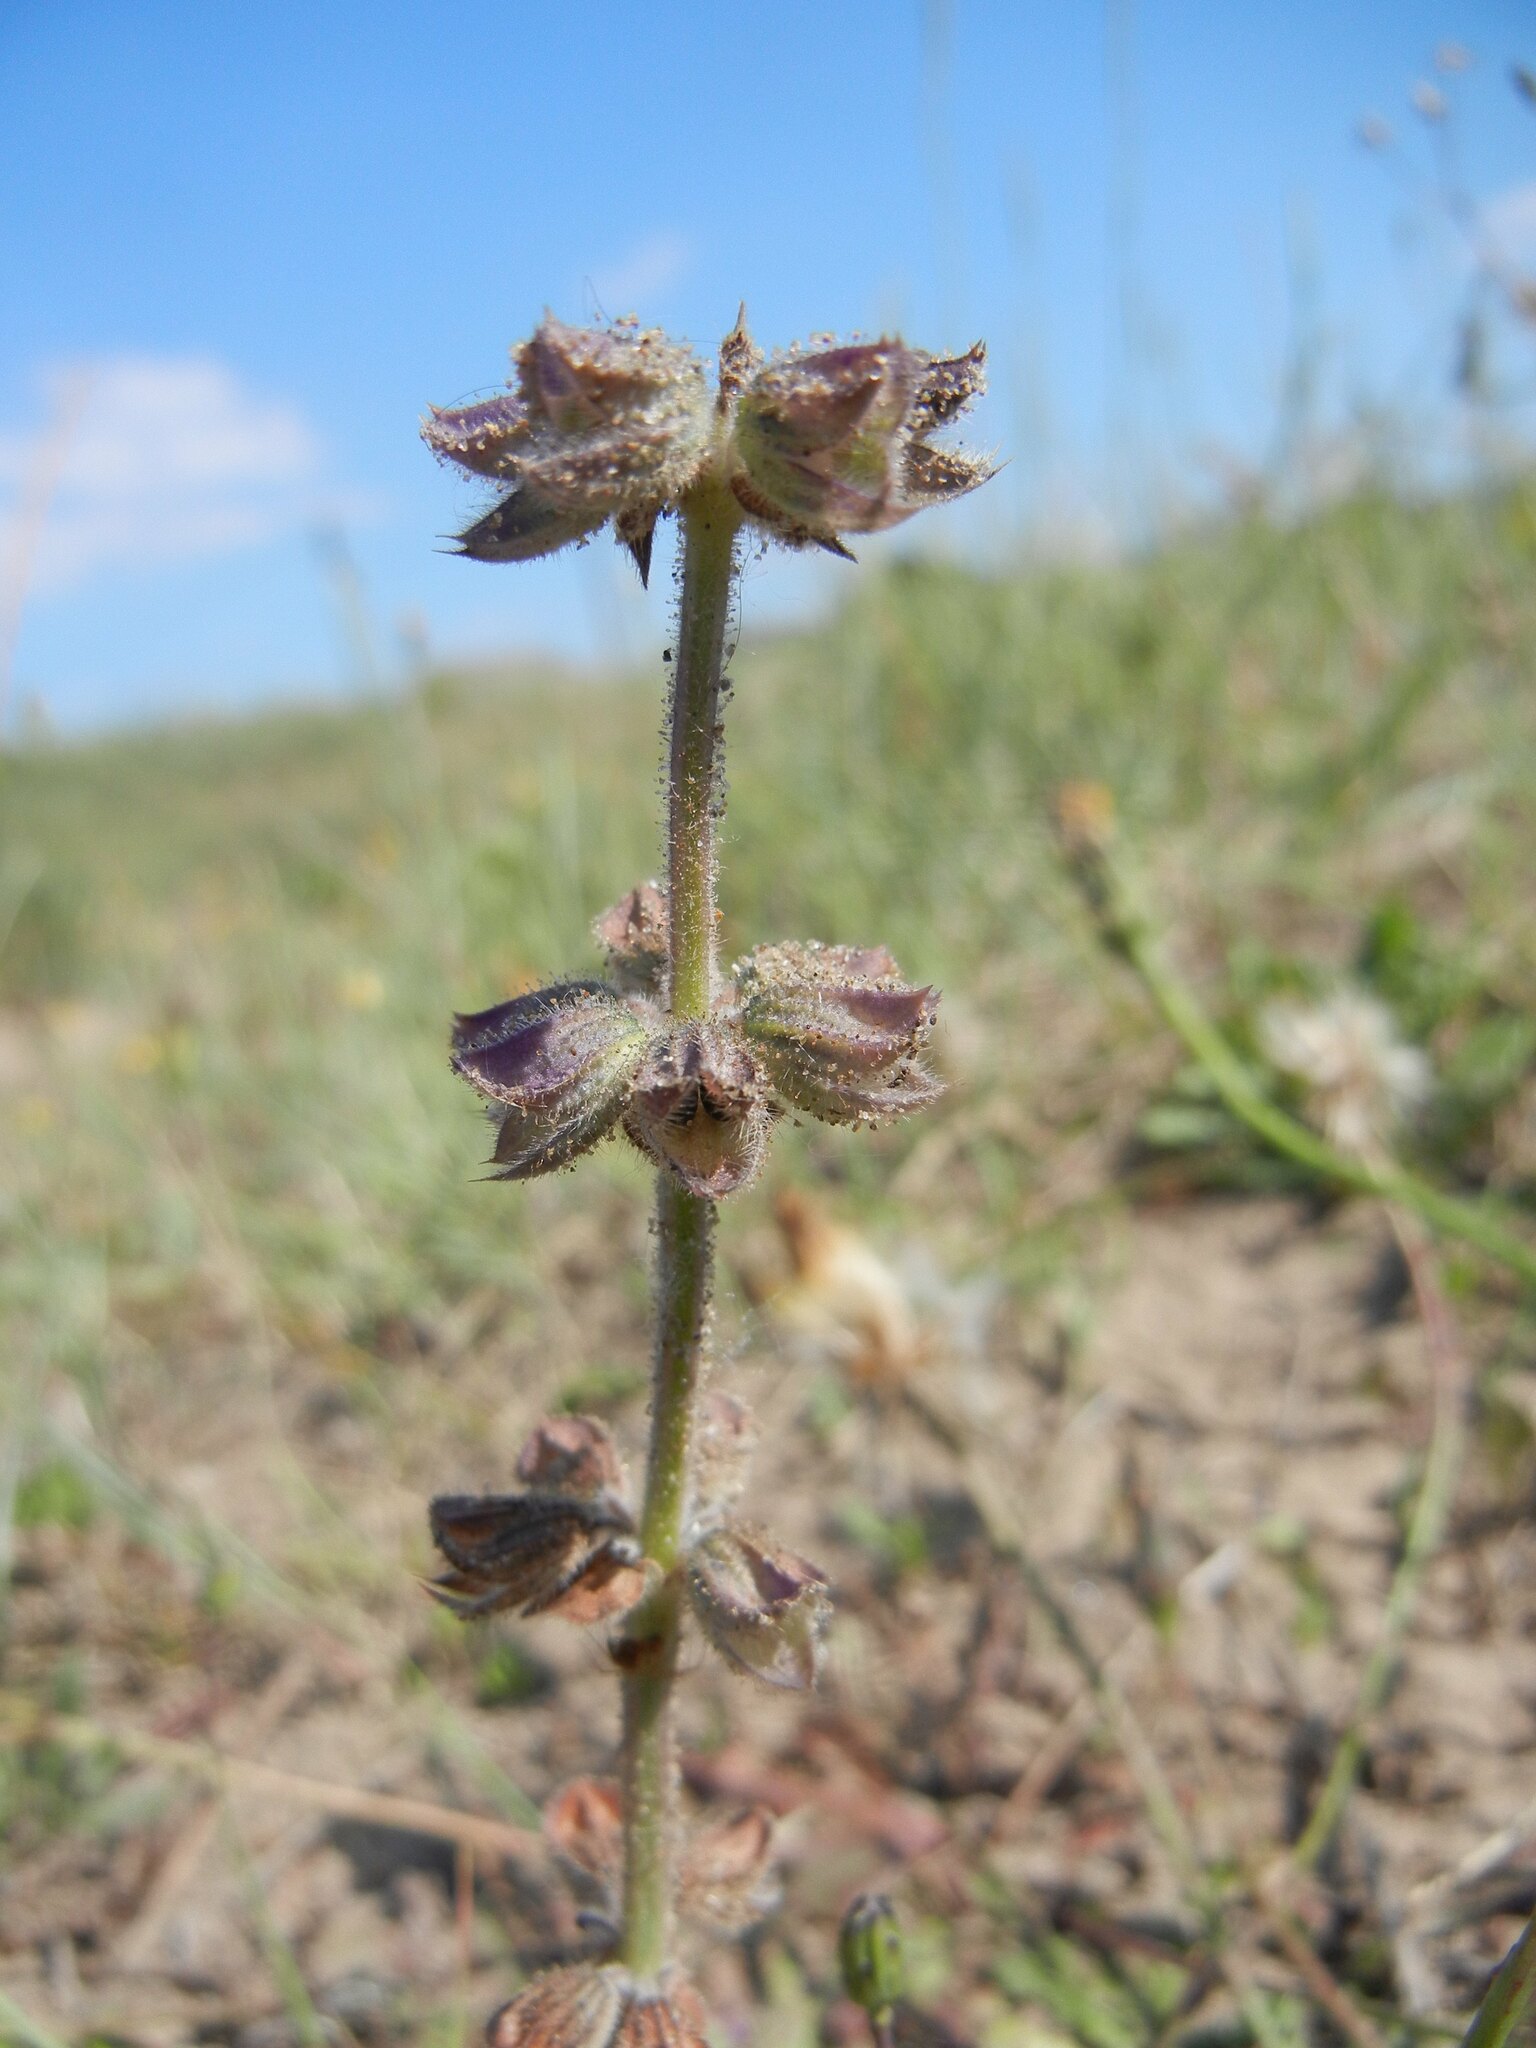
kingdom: Plantae
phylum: Tracheophyta
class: Magnoliopsida
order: Lamiales
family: Lamiaceae
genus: Salvia
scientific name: Salvia verbenaca
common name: Wild clary
